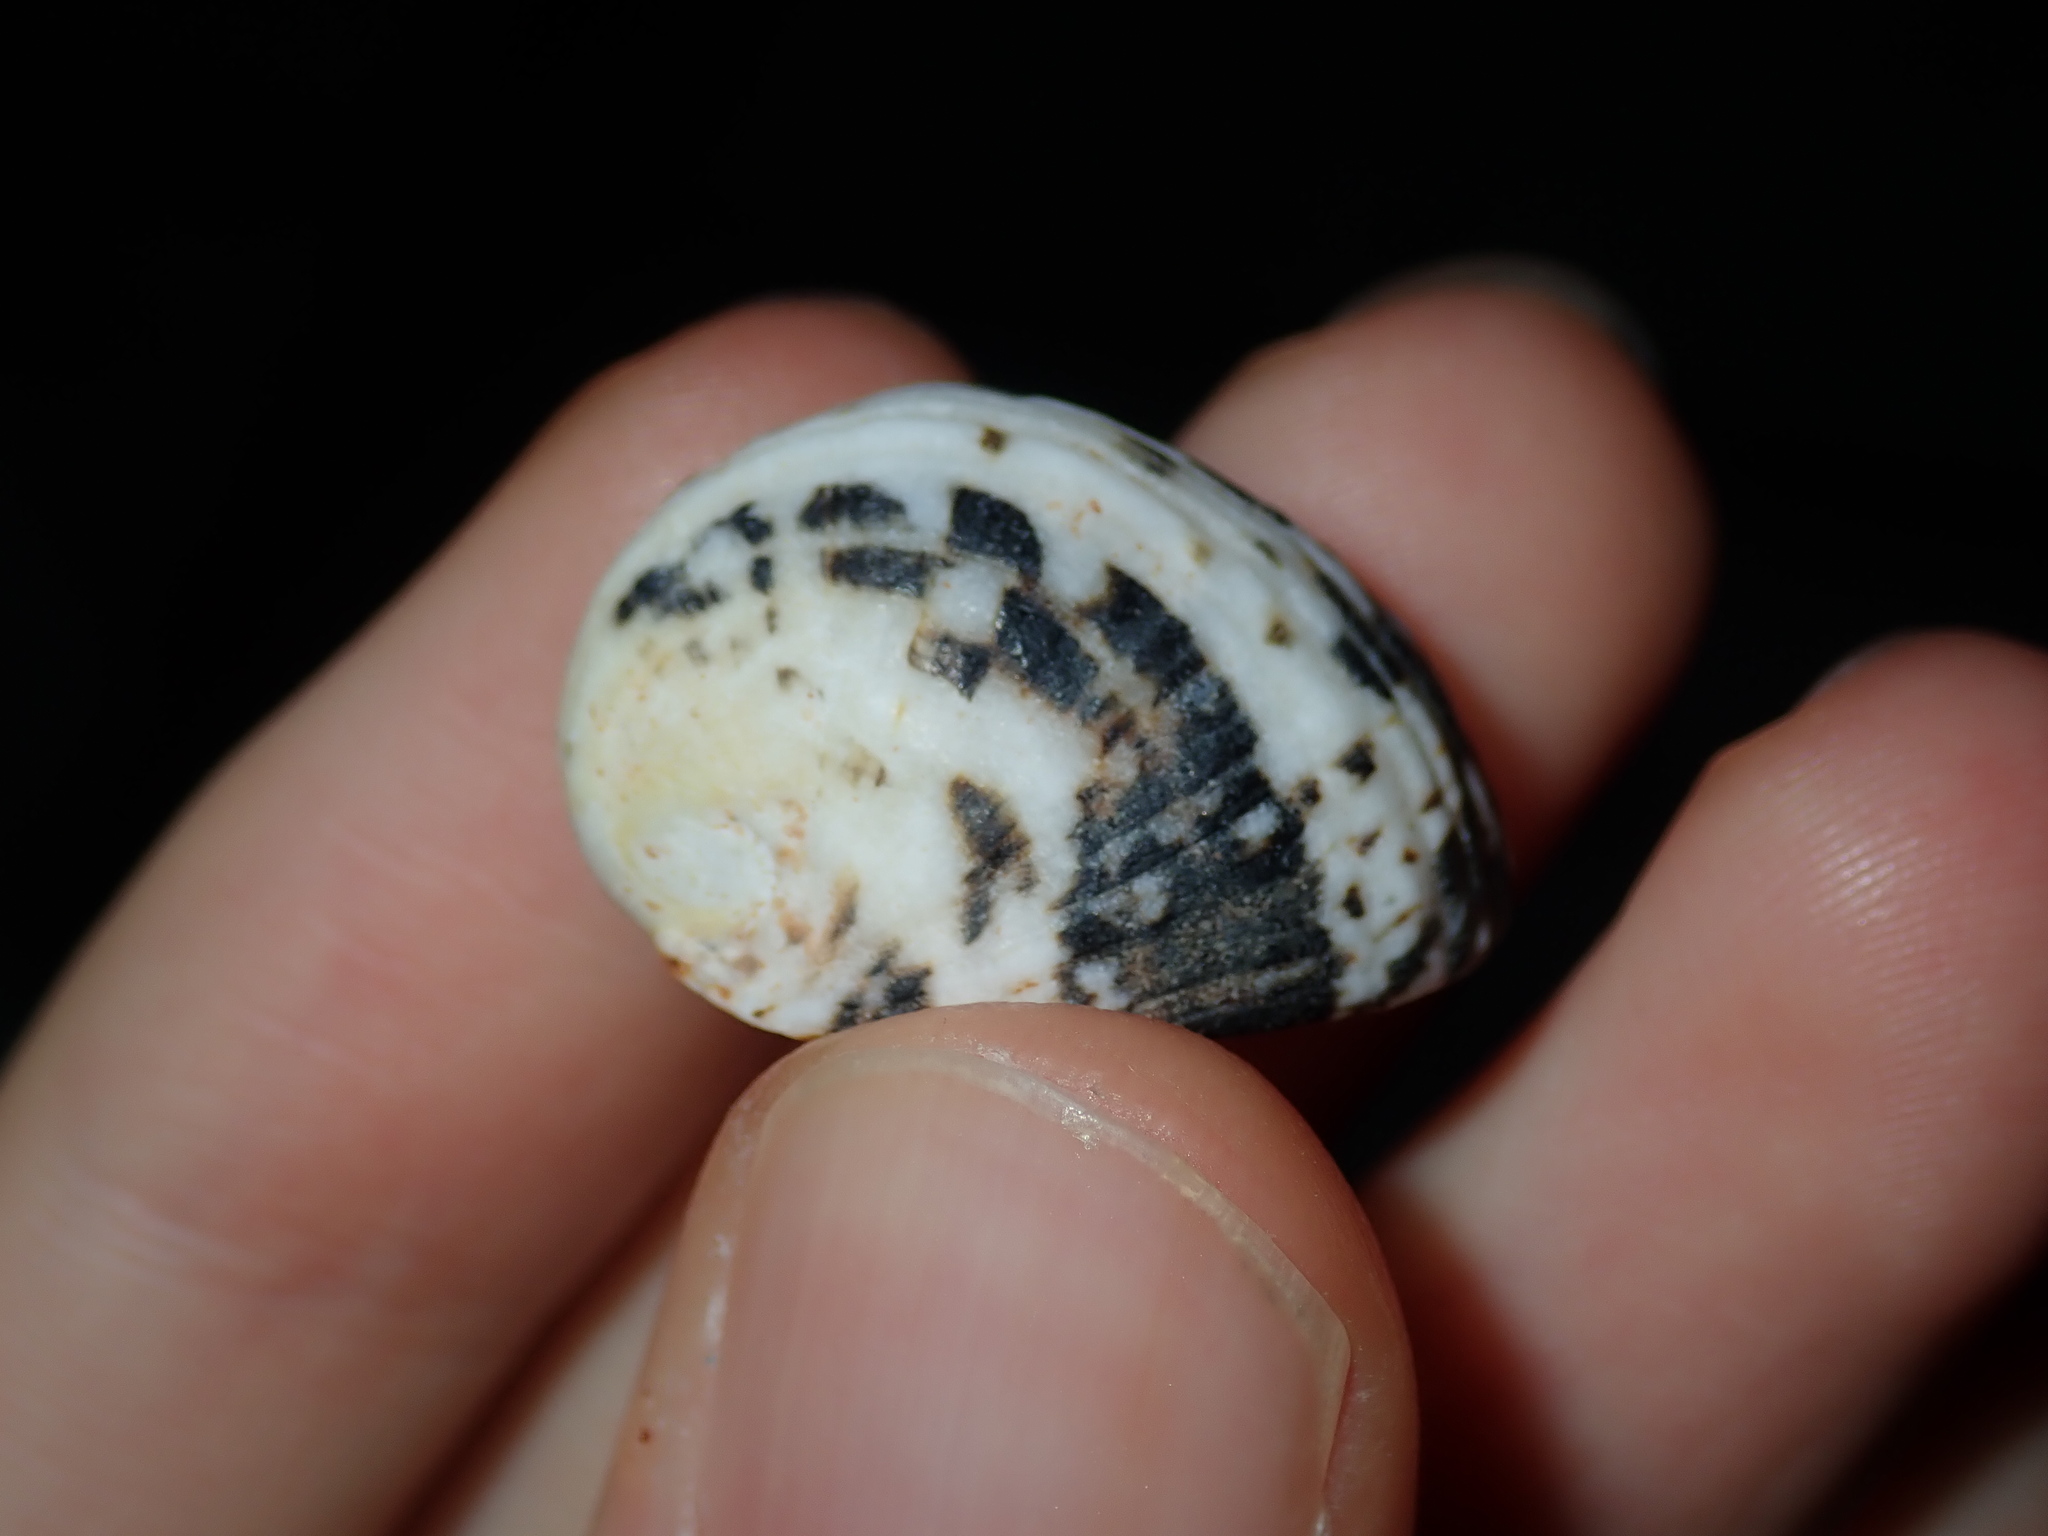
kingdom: Animalia
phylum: Mollusca
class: Gastropoda
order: Cycloneritida
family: Neritidae
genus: Nerita
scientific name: Nerita albicilla
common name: Blotched nerite
